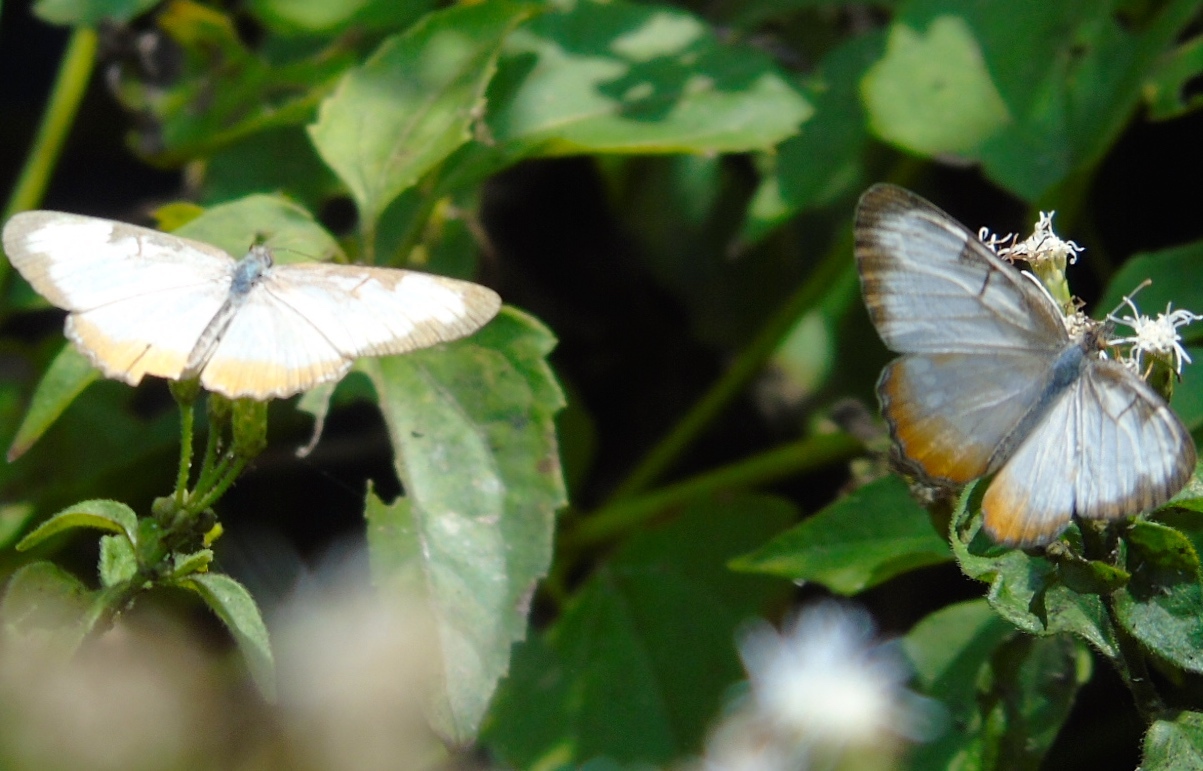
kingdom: Animalia
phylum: Arthropoda
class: Insecta
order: Lepidoptera
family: Nymphalidae
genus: Mestra
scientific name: Mestra amymone
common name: Common mestra
